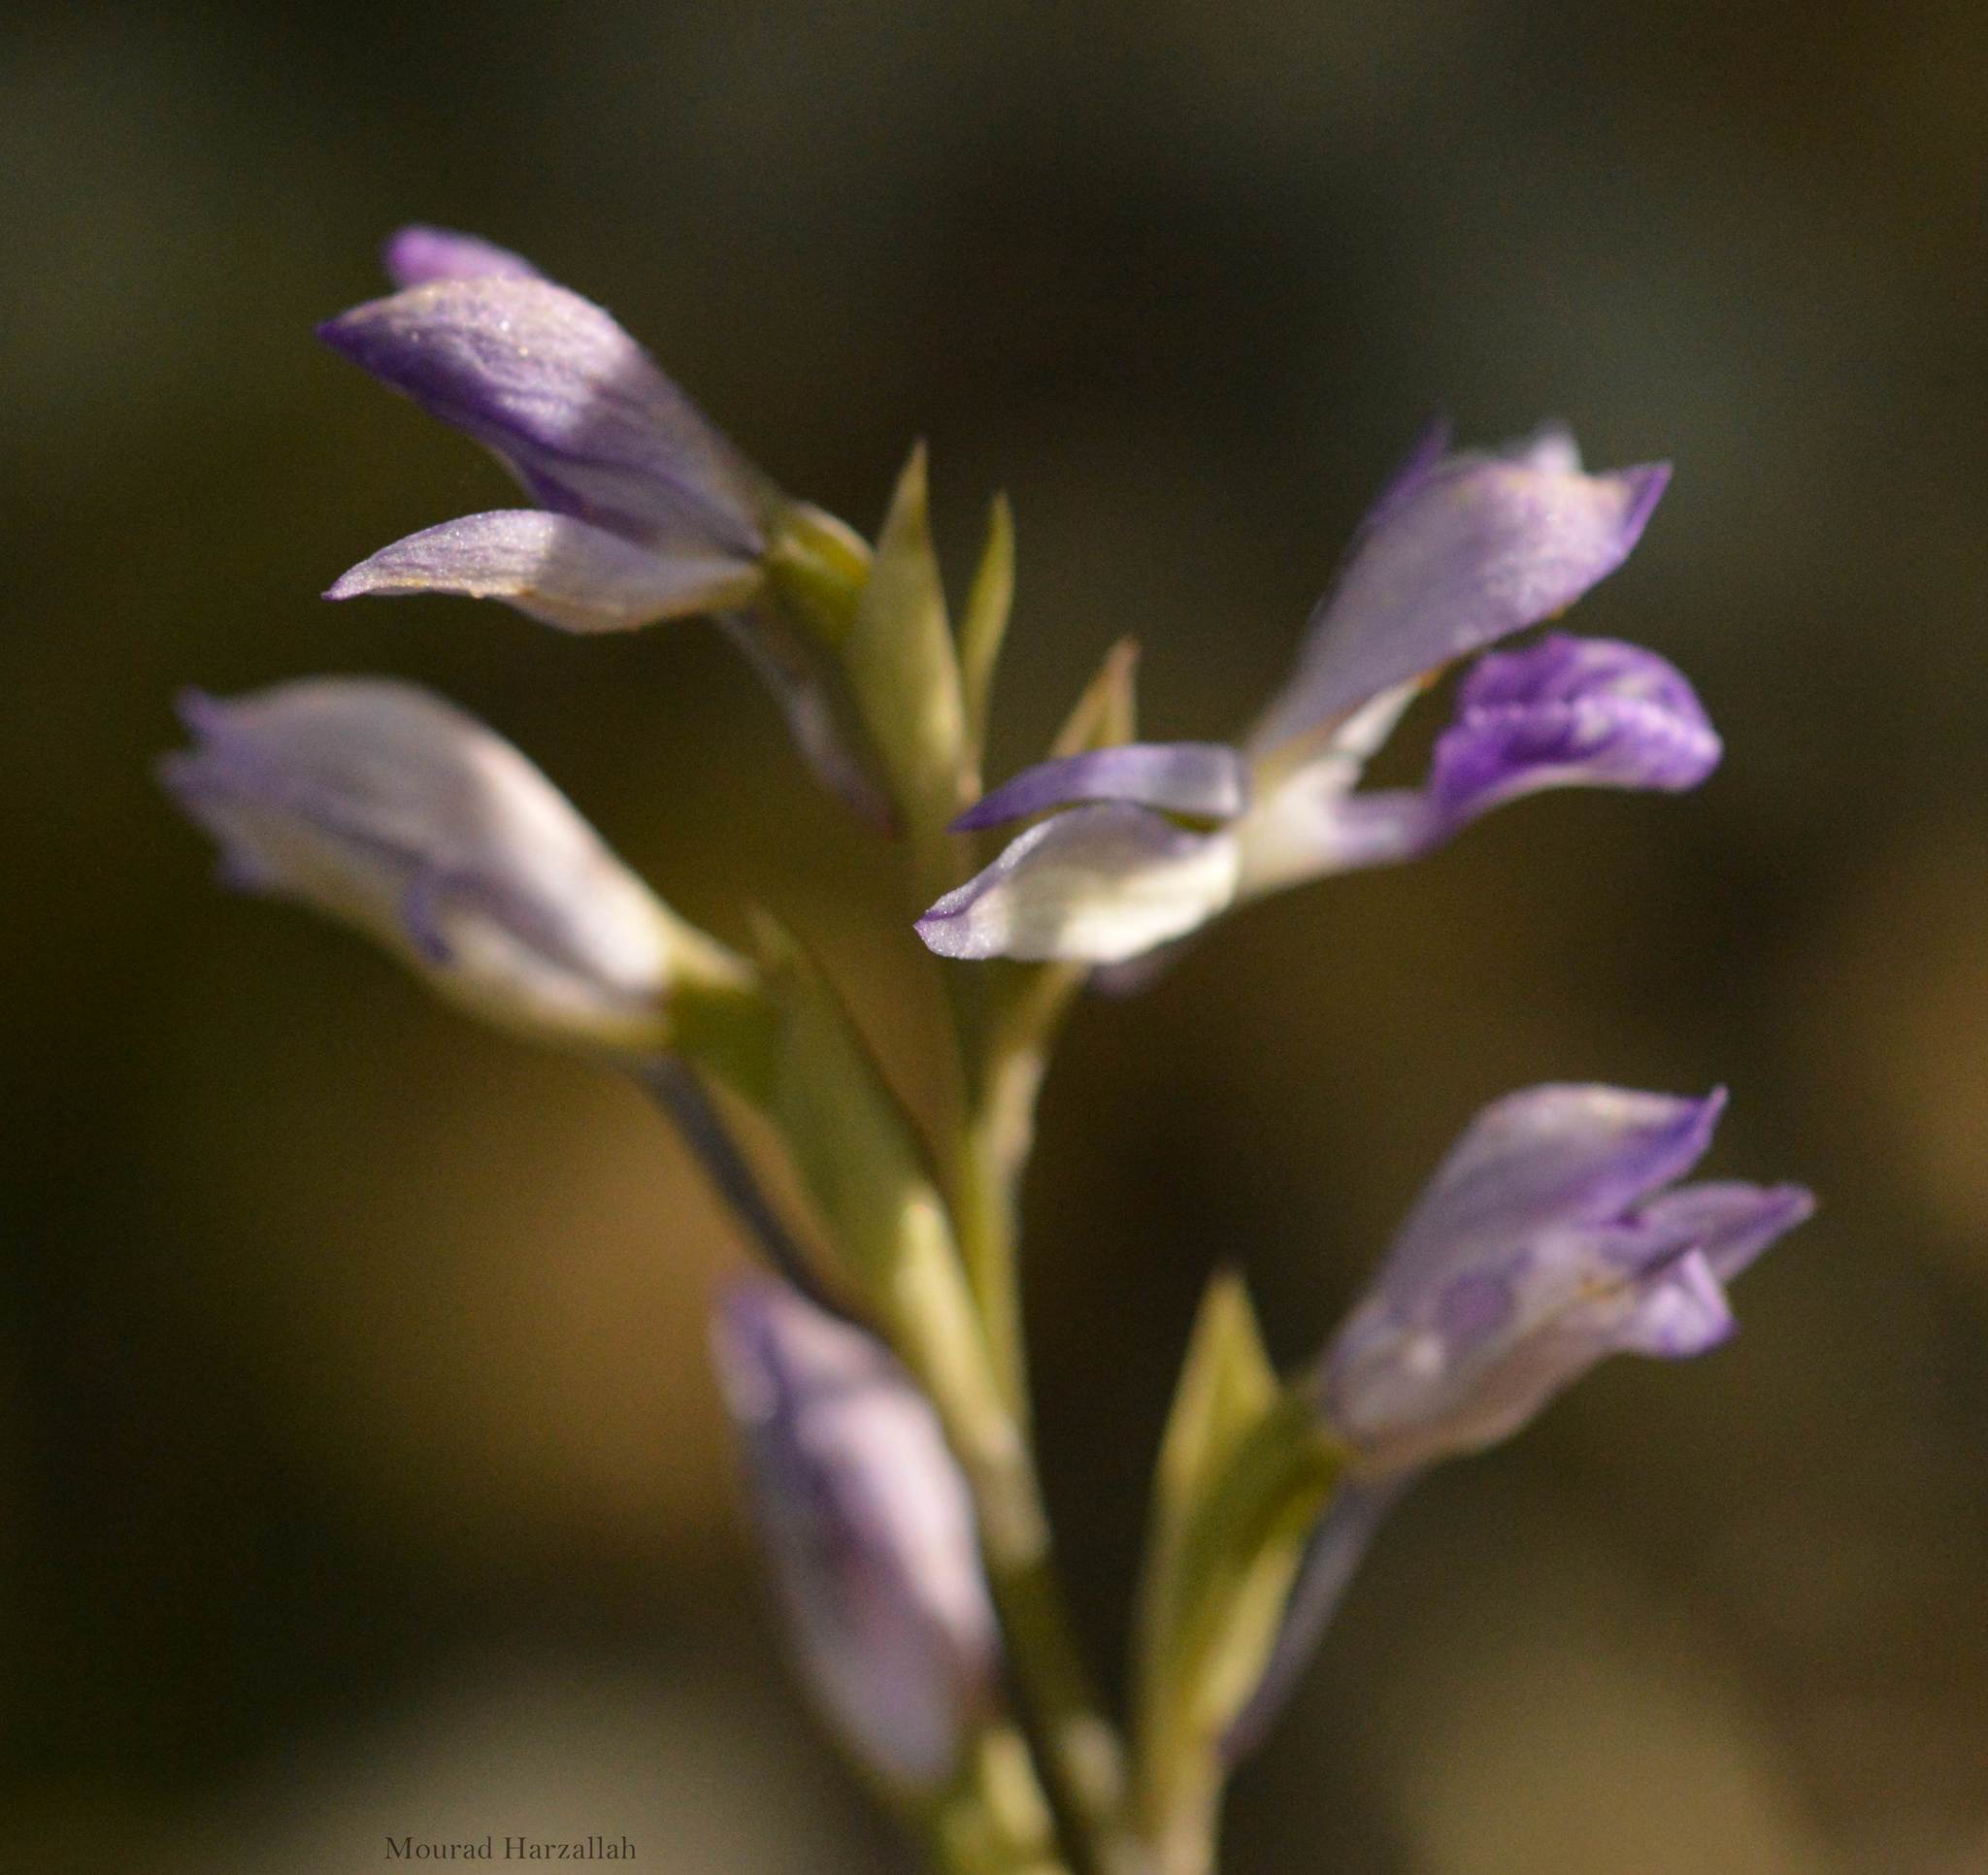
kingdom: Plantae
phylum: Tracheophyta
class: Liliopsida
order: Asparagales
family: Orchidaceae
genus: Limodorum
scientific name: Limodorum abortivum
